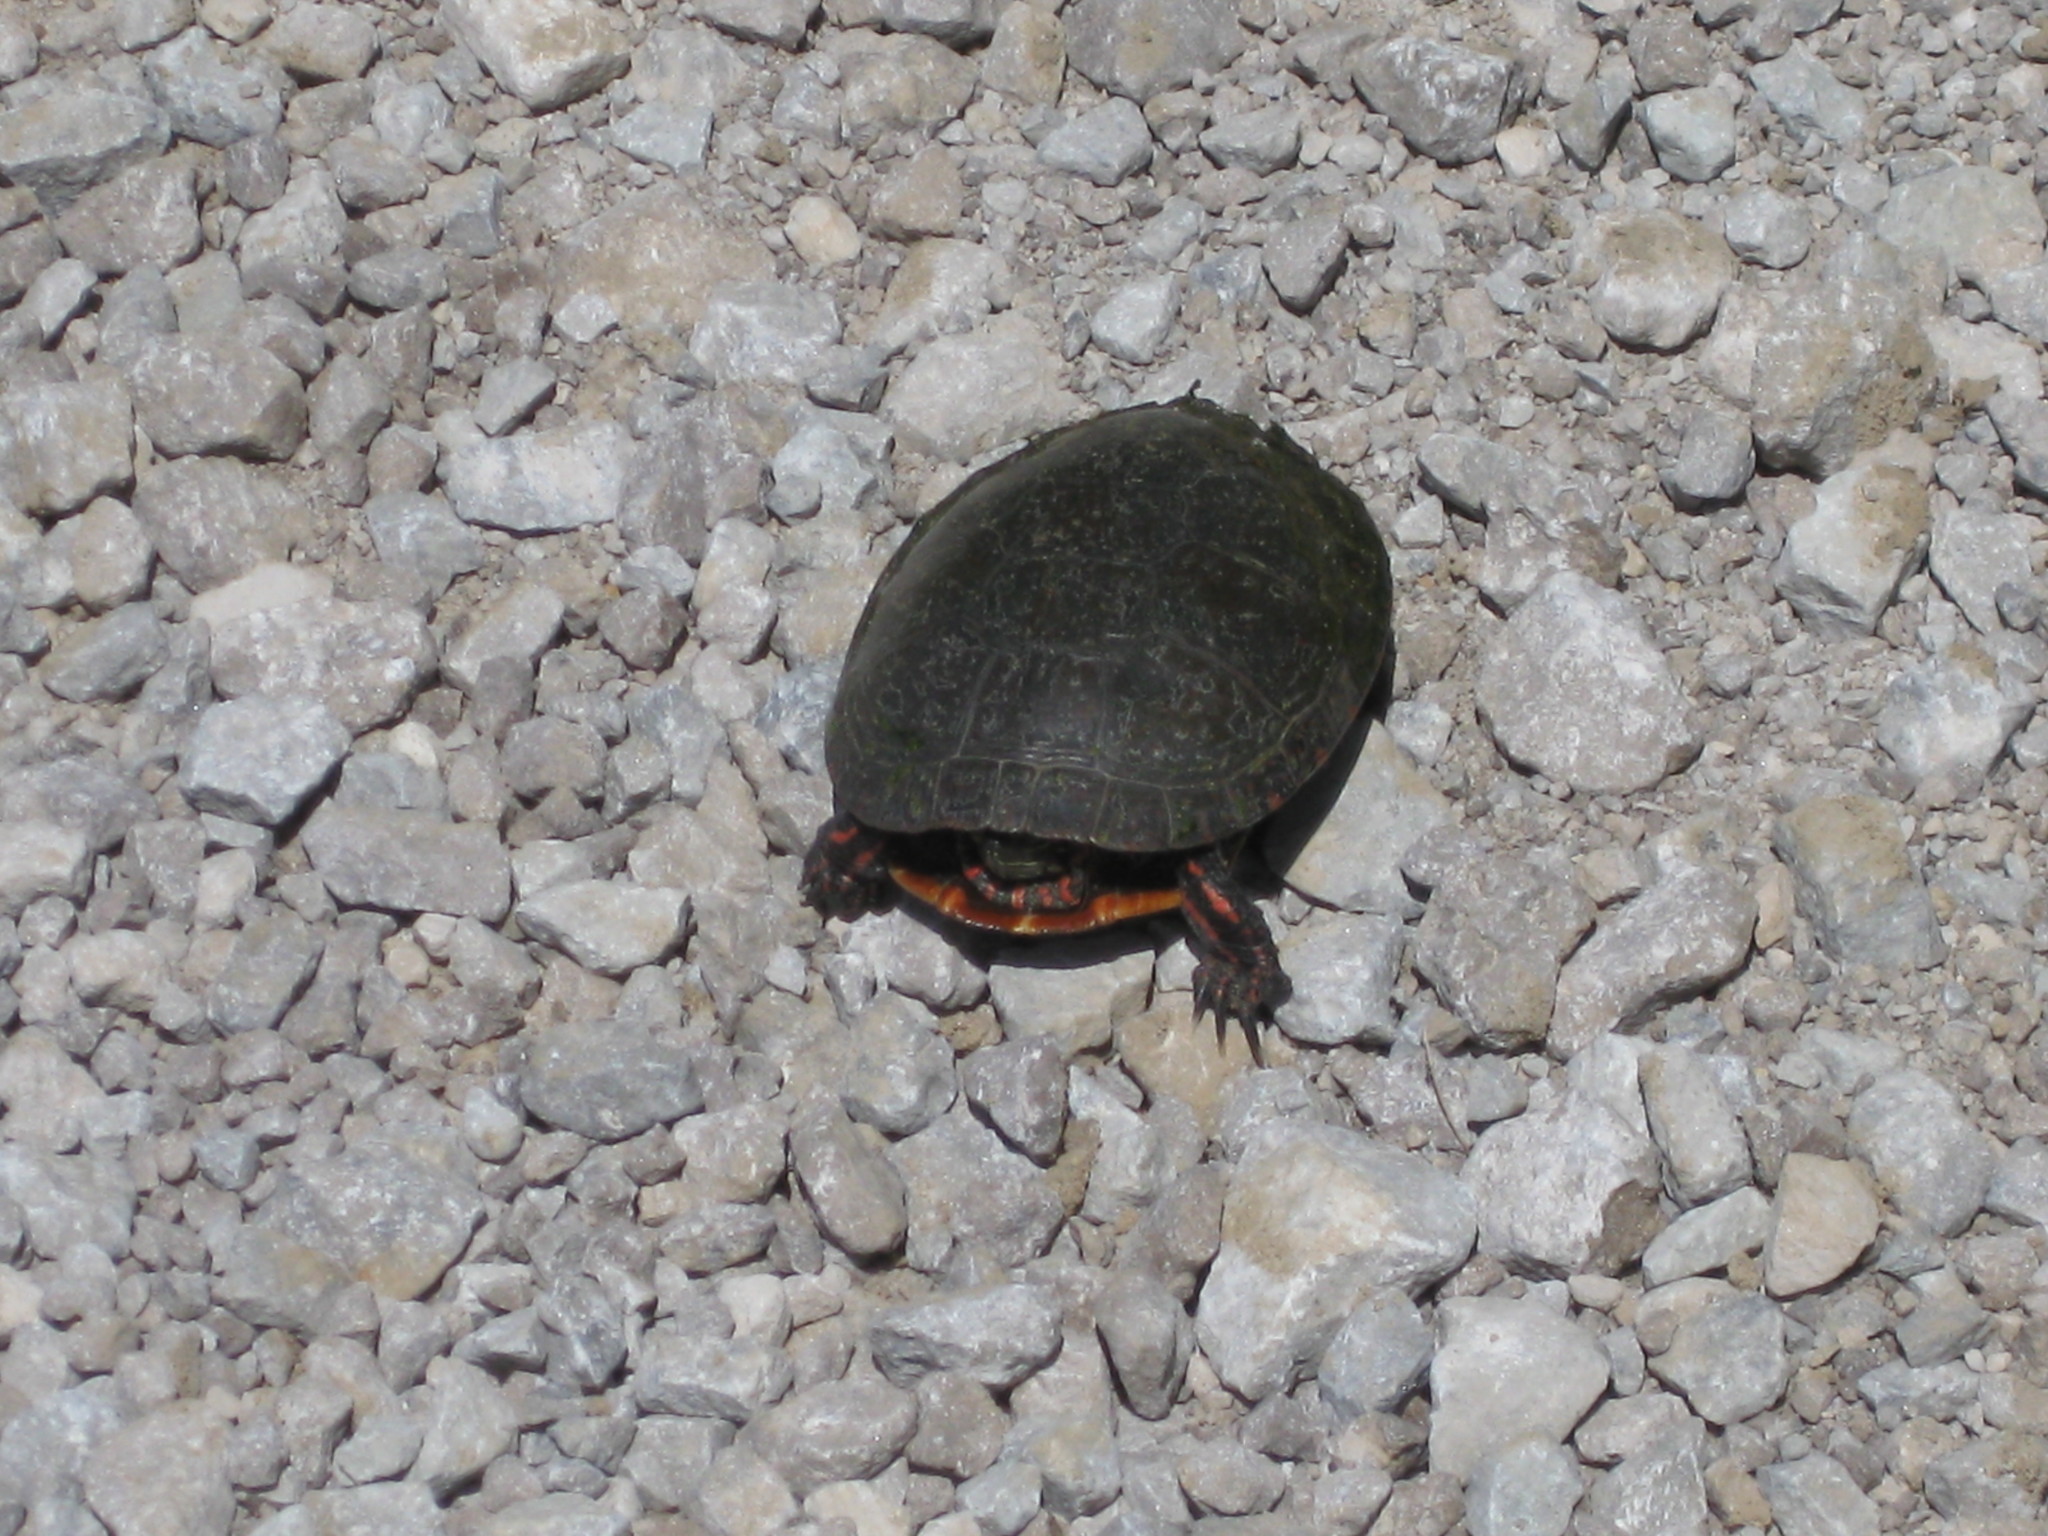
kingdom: Animalia
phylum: Chordata
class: Testudines
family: Emydidae
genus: Chrysemys
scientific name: Chrysemys picta
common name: Painted turtle
